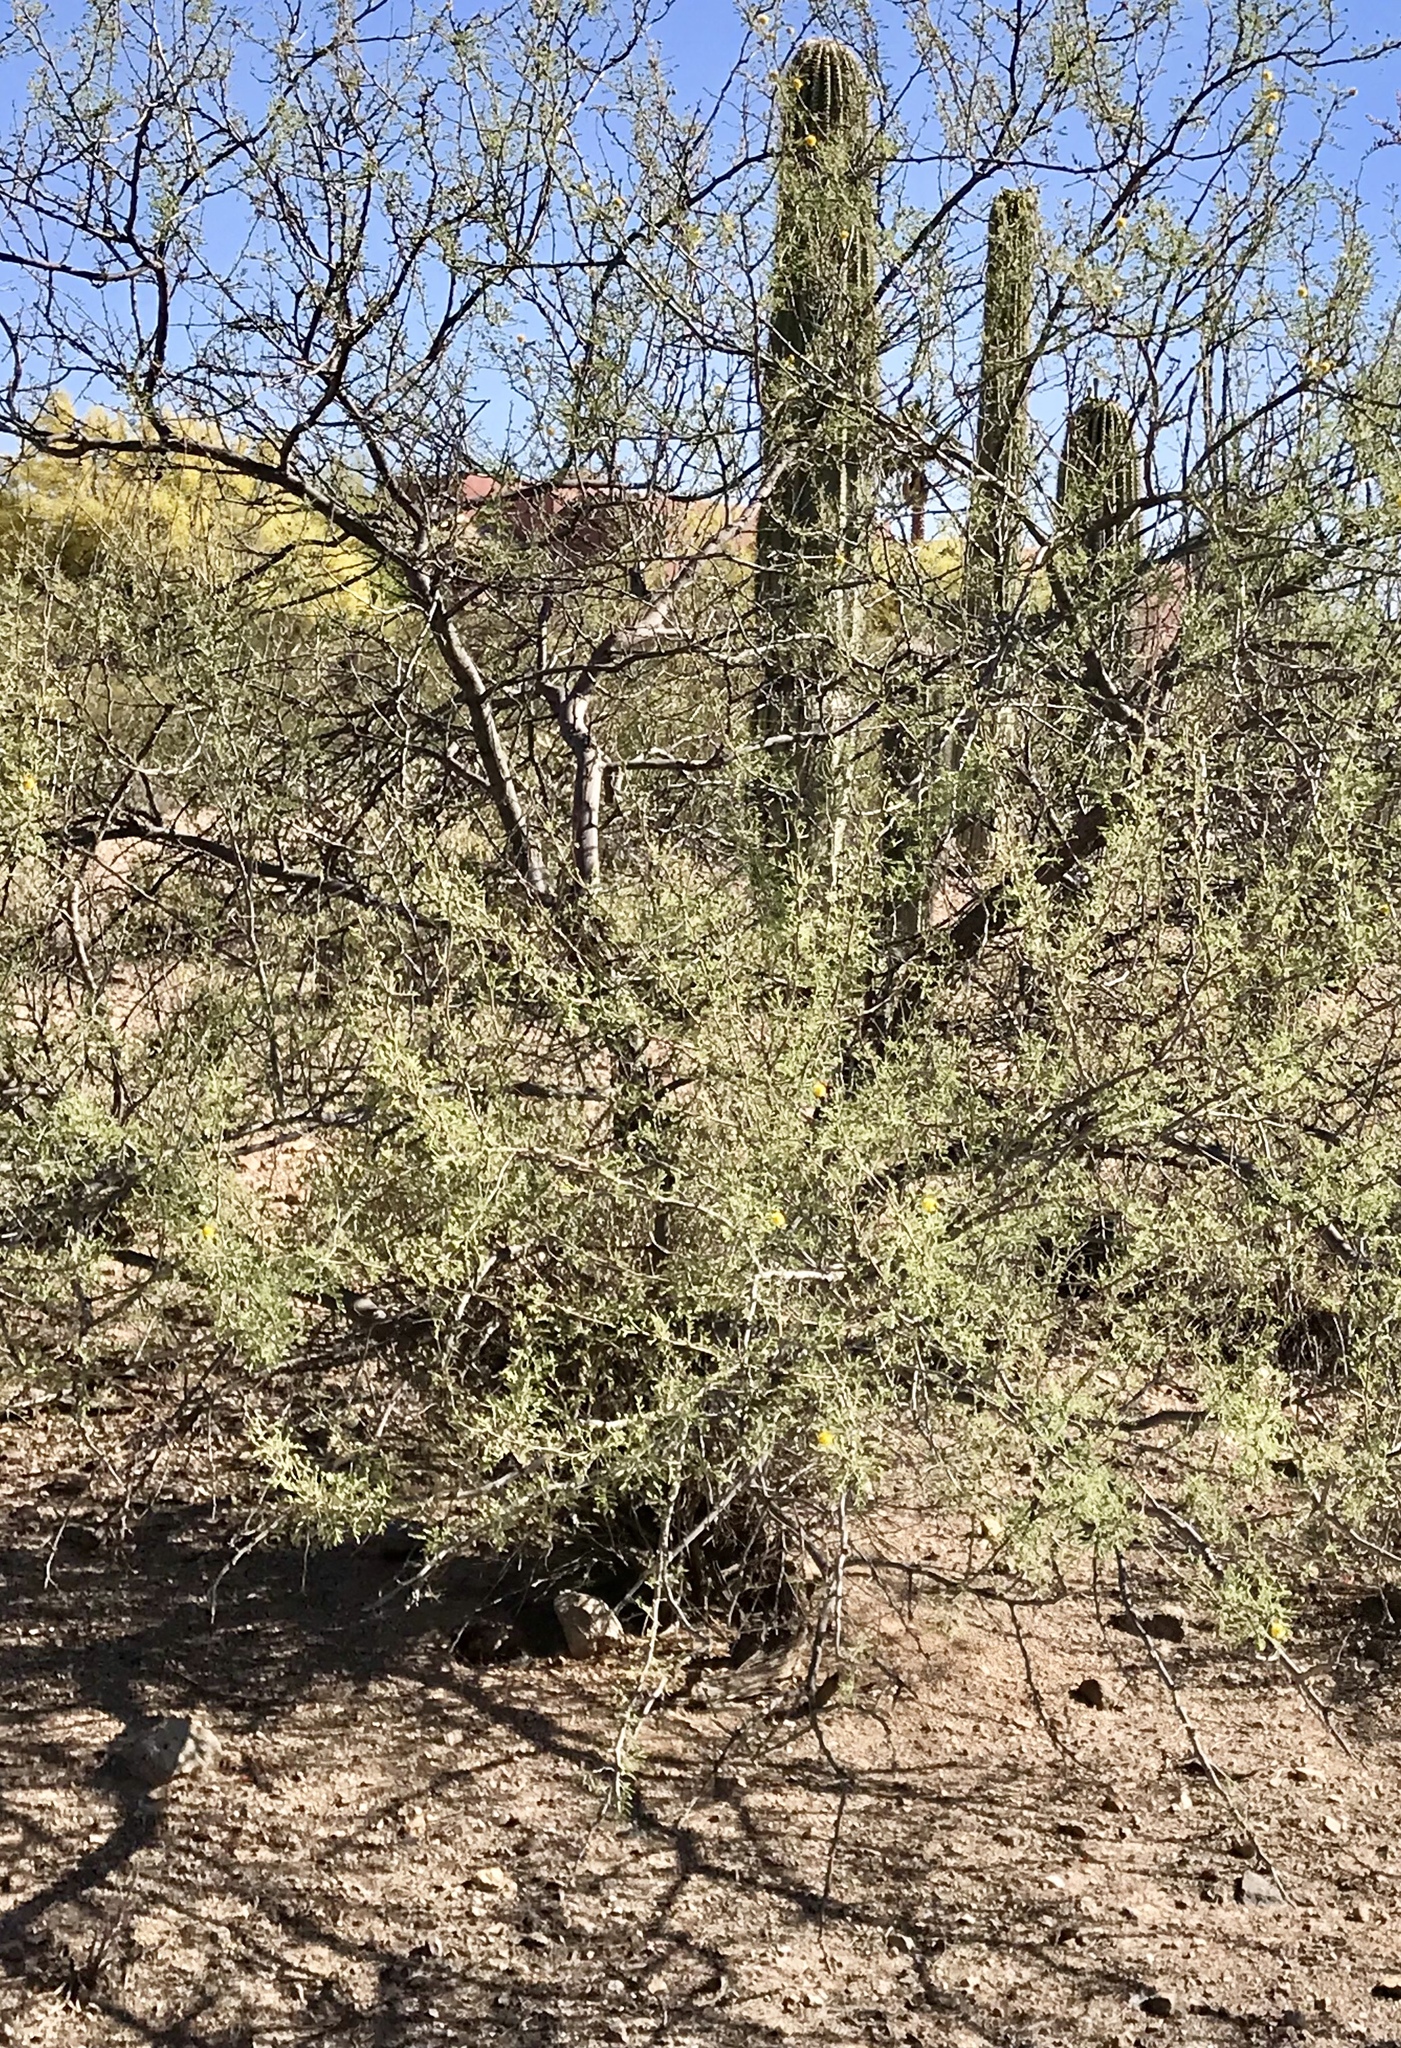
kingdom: Plantae
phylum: Tracheophyta
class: Magnoliopsida
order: Fabales
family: Fabaceae
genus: Vachellia
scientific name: Vachellia constricta
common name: Mescat acacia
